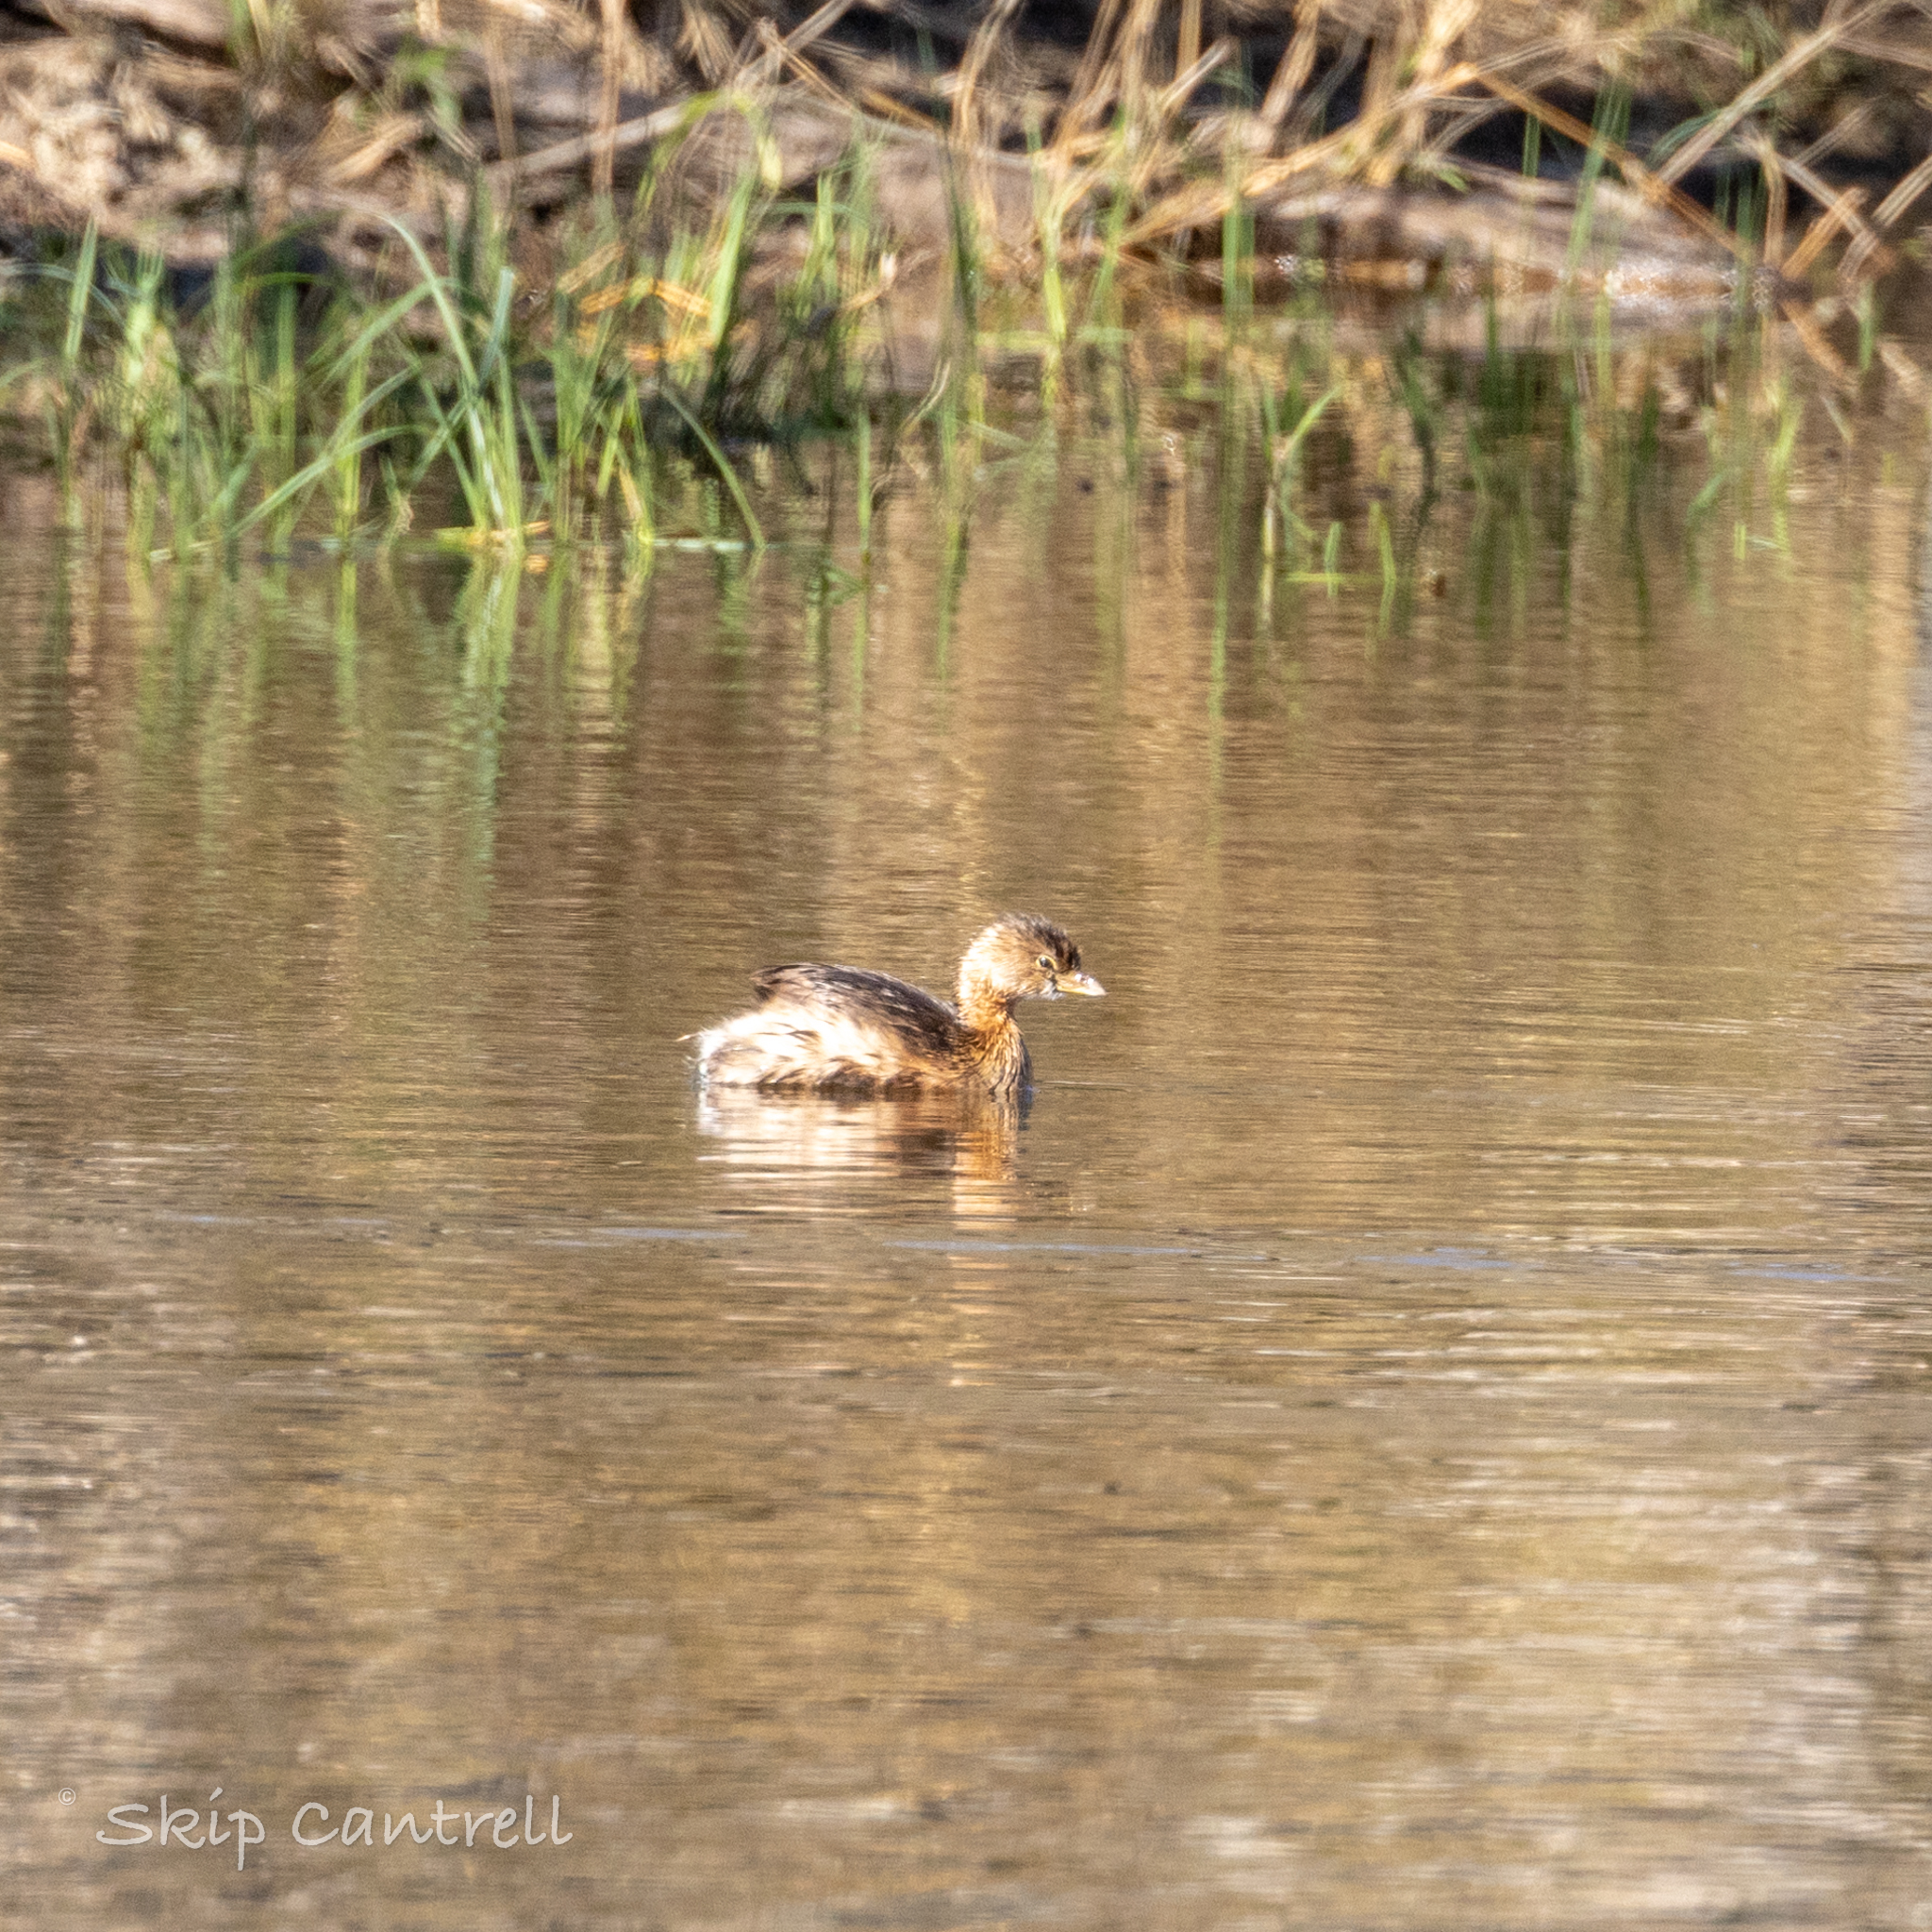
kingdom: Animalia
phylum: Chordata
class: Aves
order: Podicipediformes
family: Podicipedidae
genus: Podilymbus
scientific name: Podilymbus podiceps
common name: Pied-billed grebe
